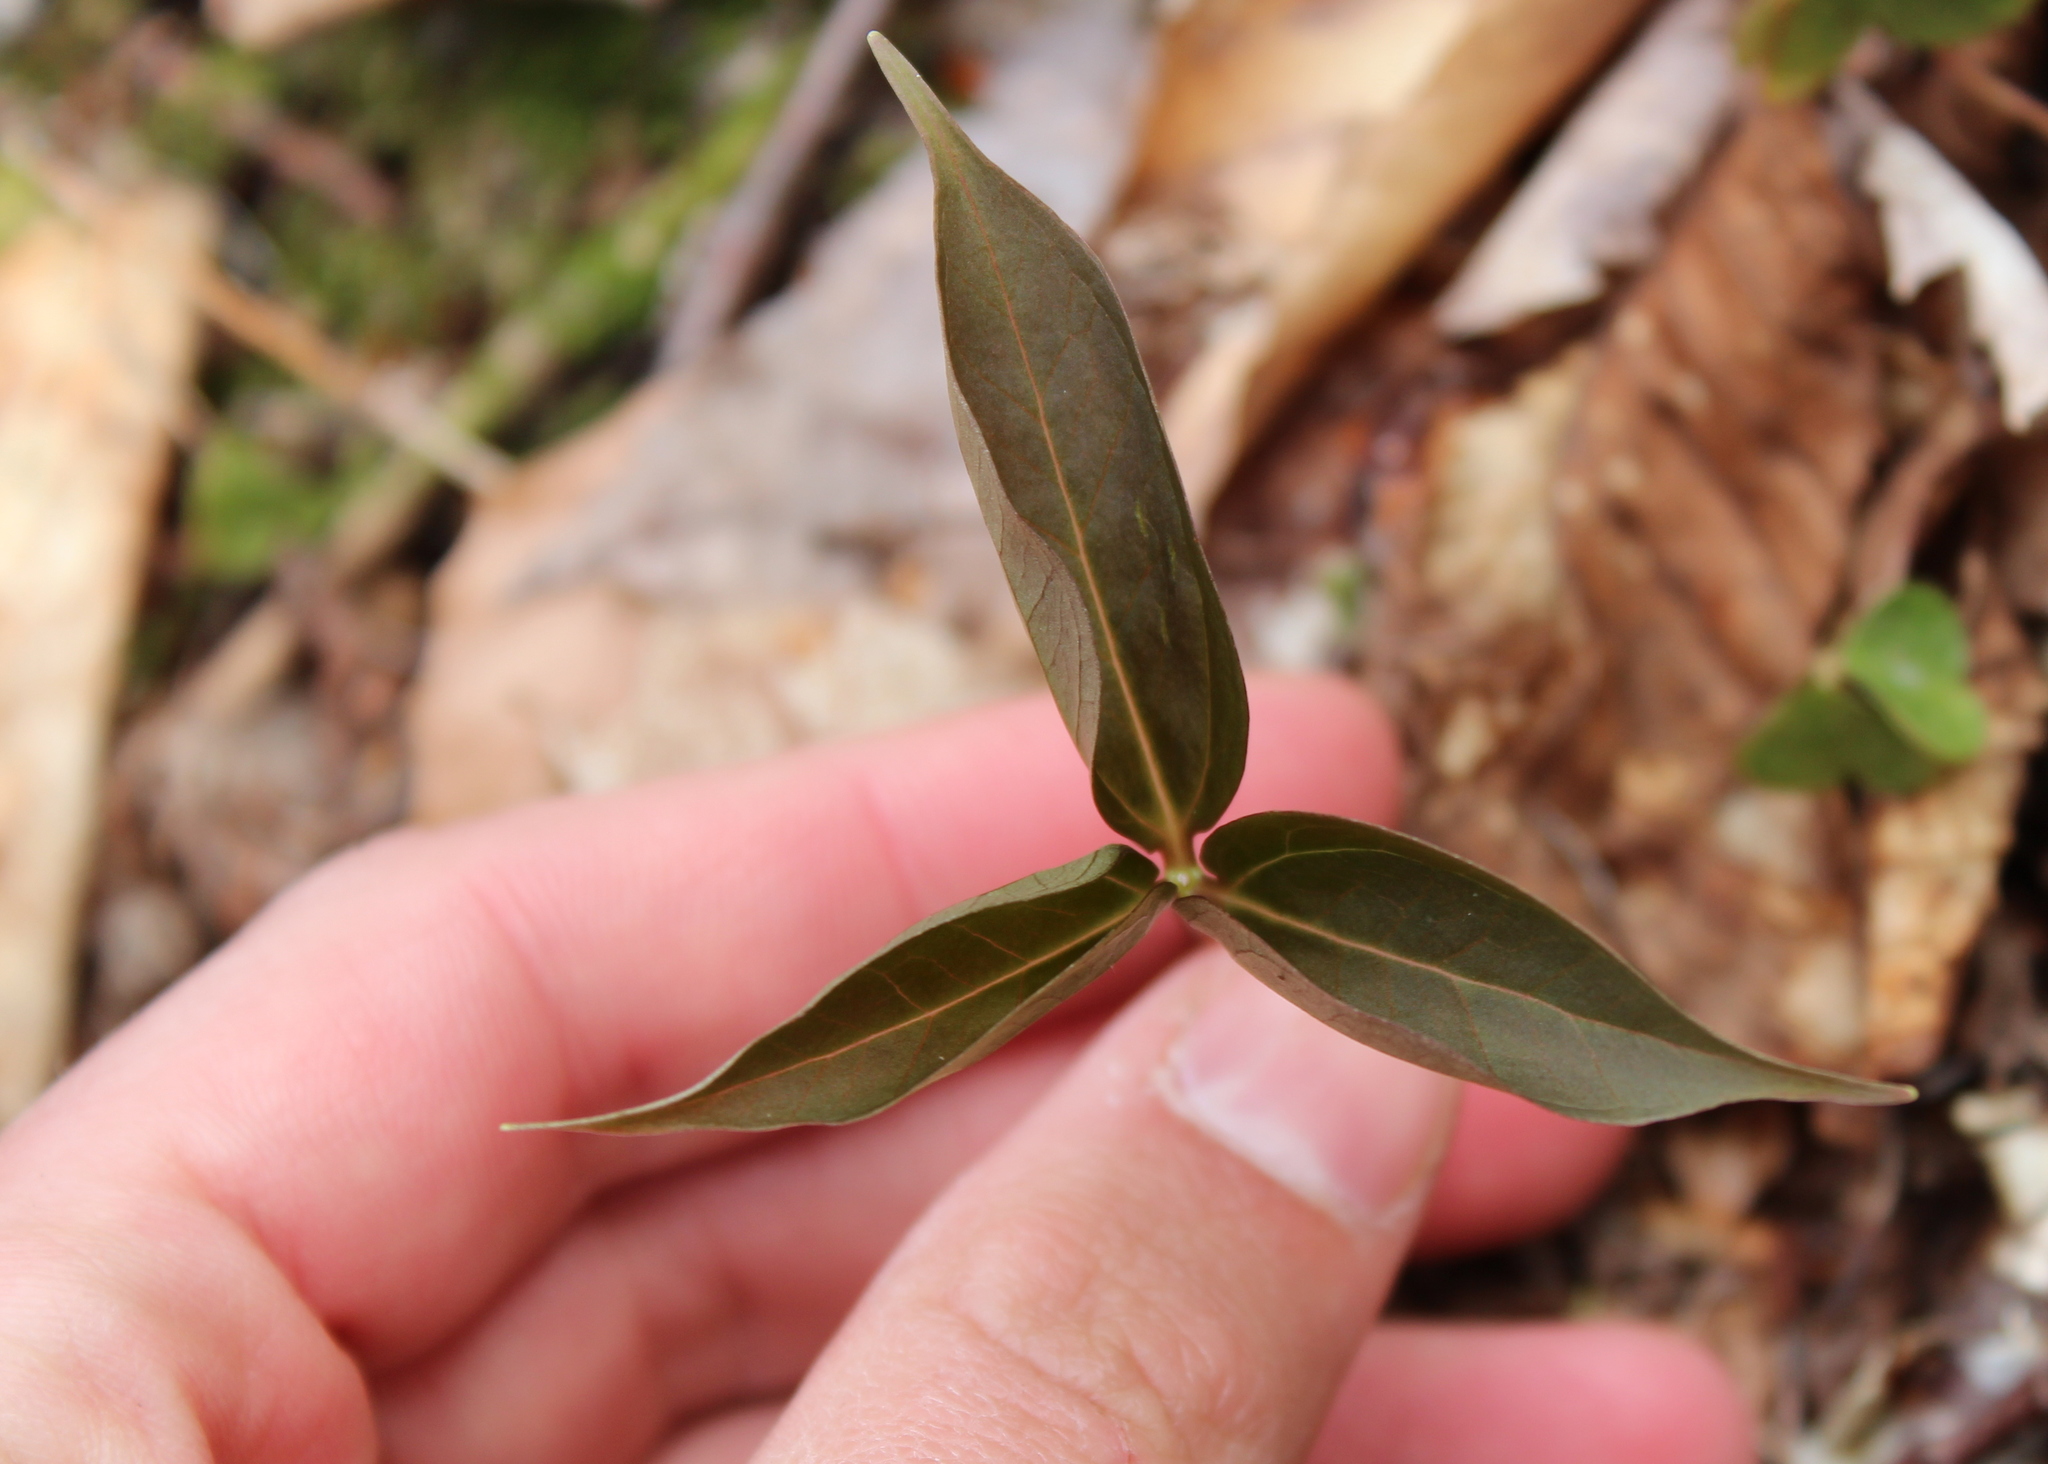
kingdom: Plantae
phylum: Tracheophyta
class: Liliopsida
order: Liliales
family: Melanthiaceae
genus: Trillium
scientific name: Trillium undulatum
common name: Paint trillium
